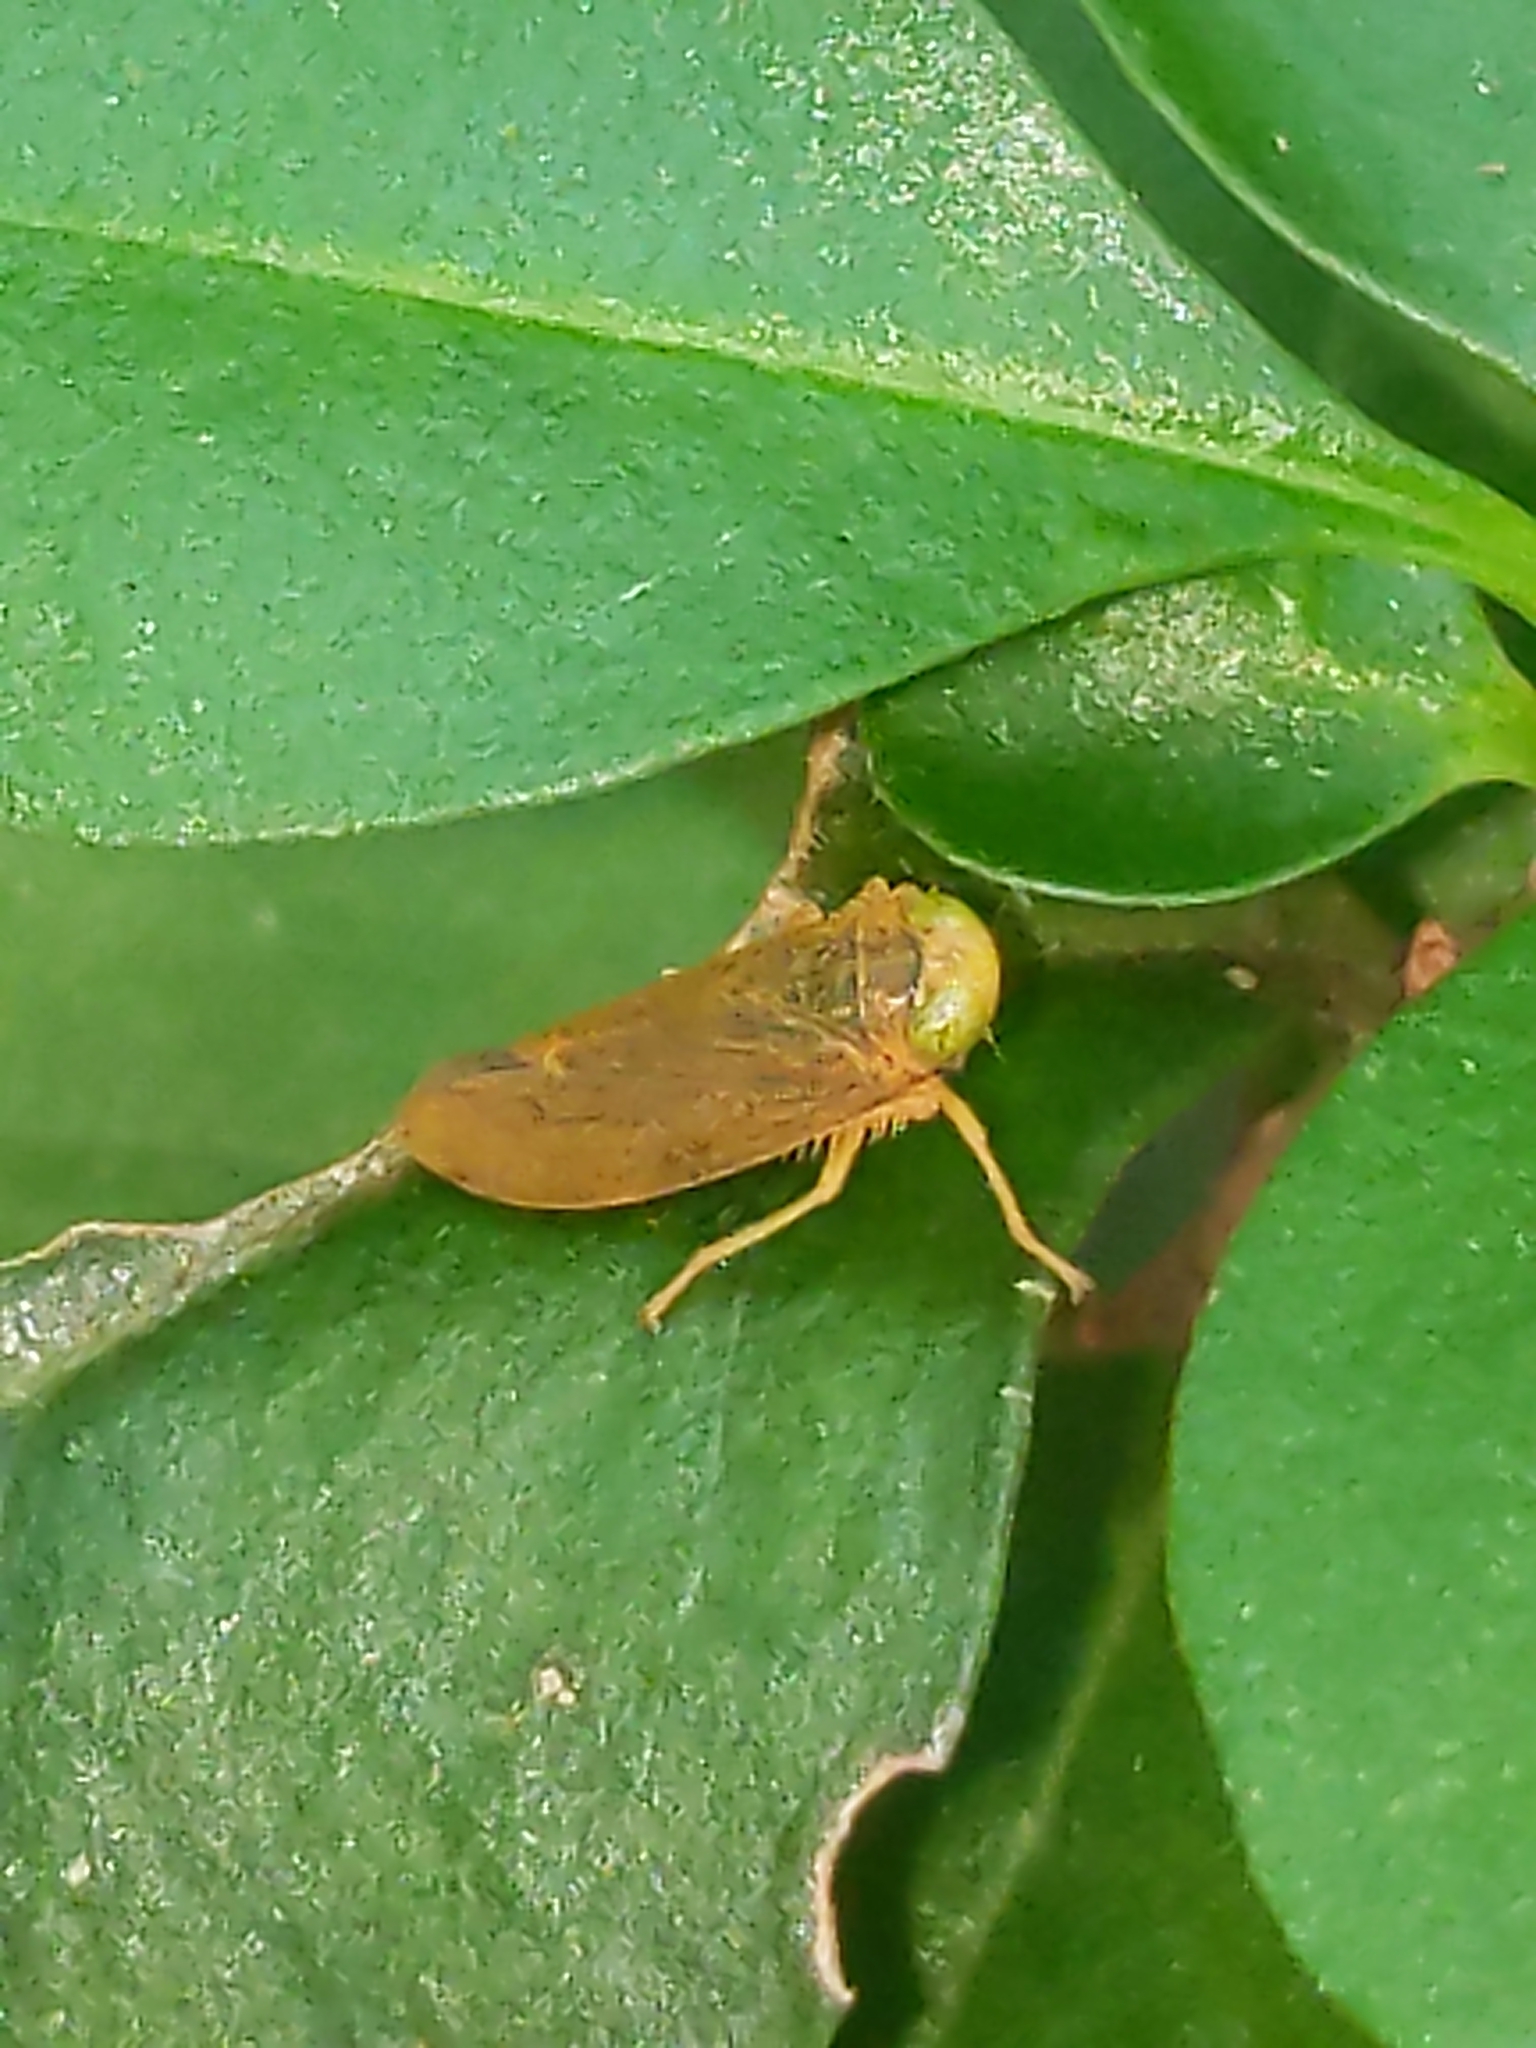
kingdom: Animalia
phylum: Arthropoda
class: Insecta
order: Hemiptera
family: Cicadellidae
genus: Jikradia
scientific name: Jikradia olitoria
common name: Coppery leafhopper
